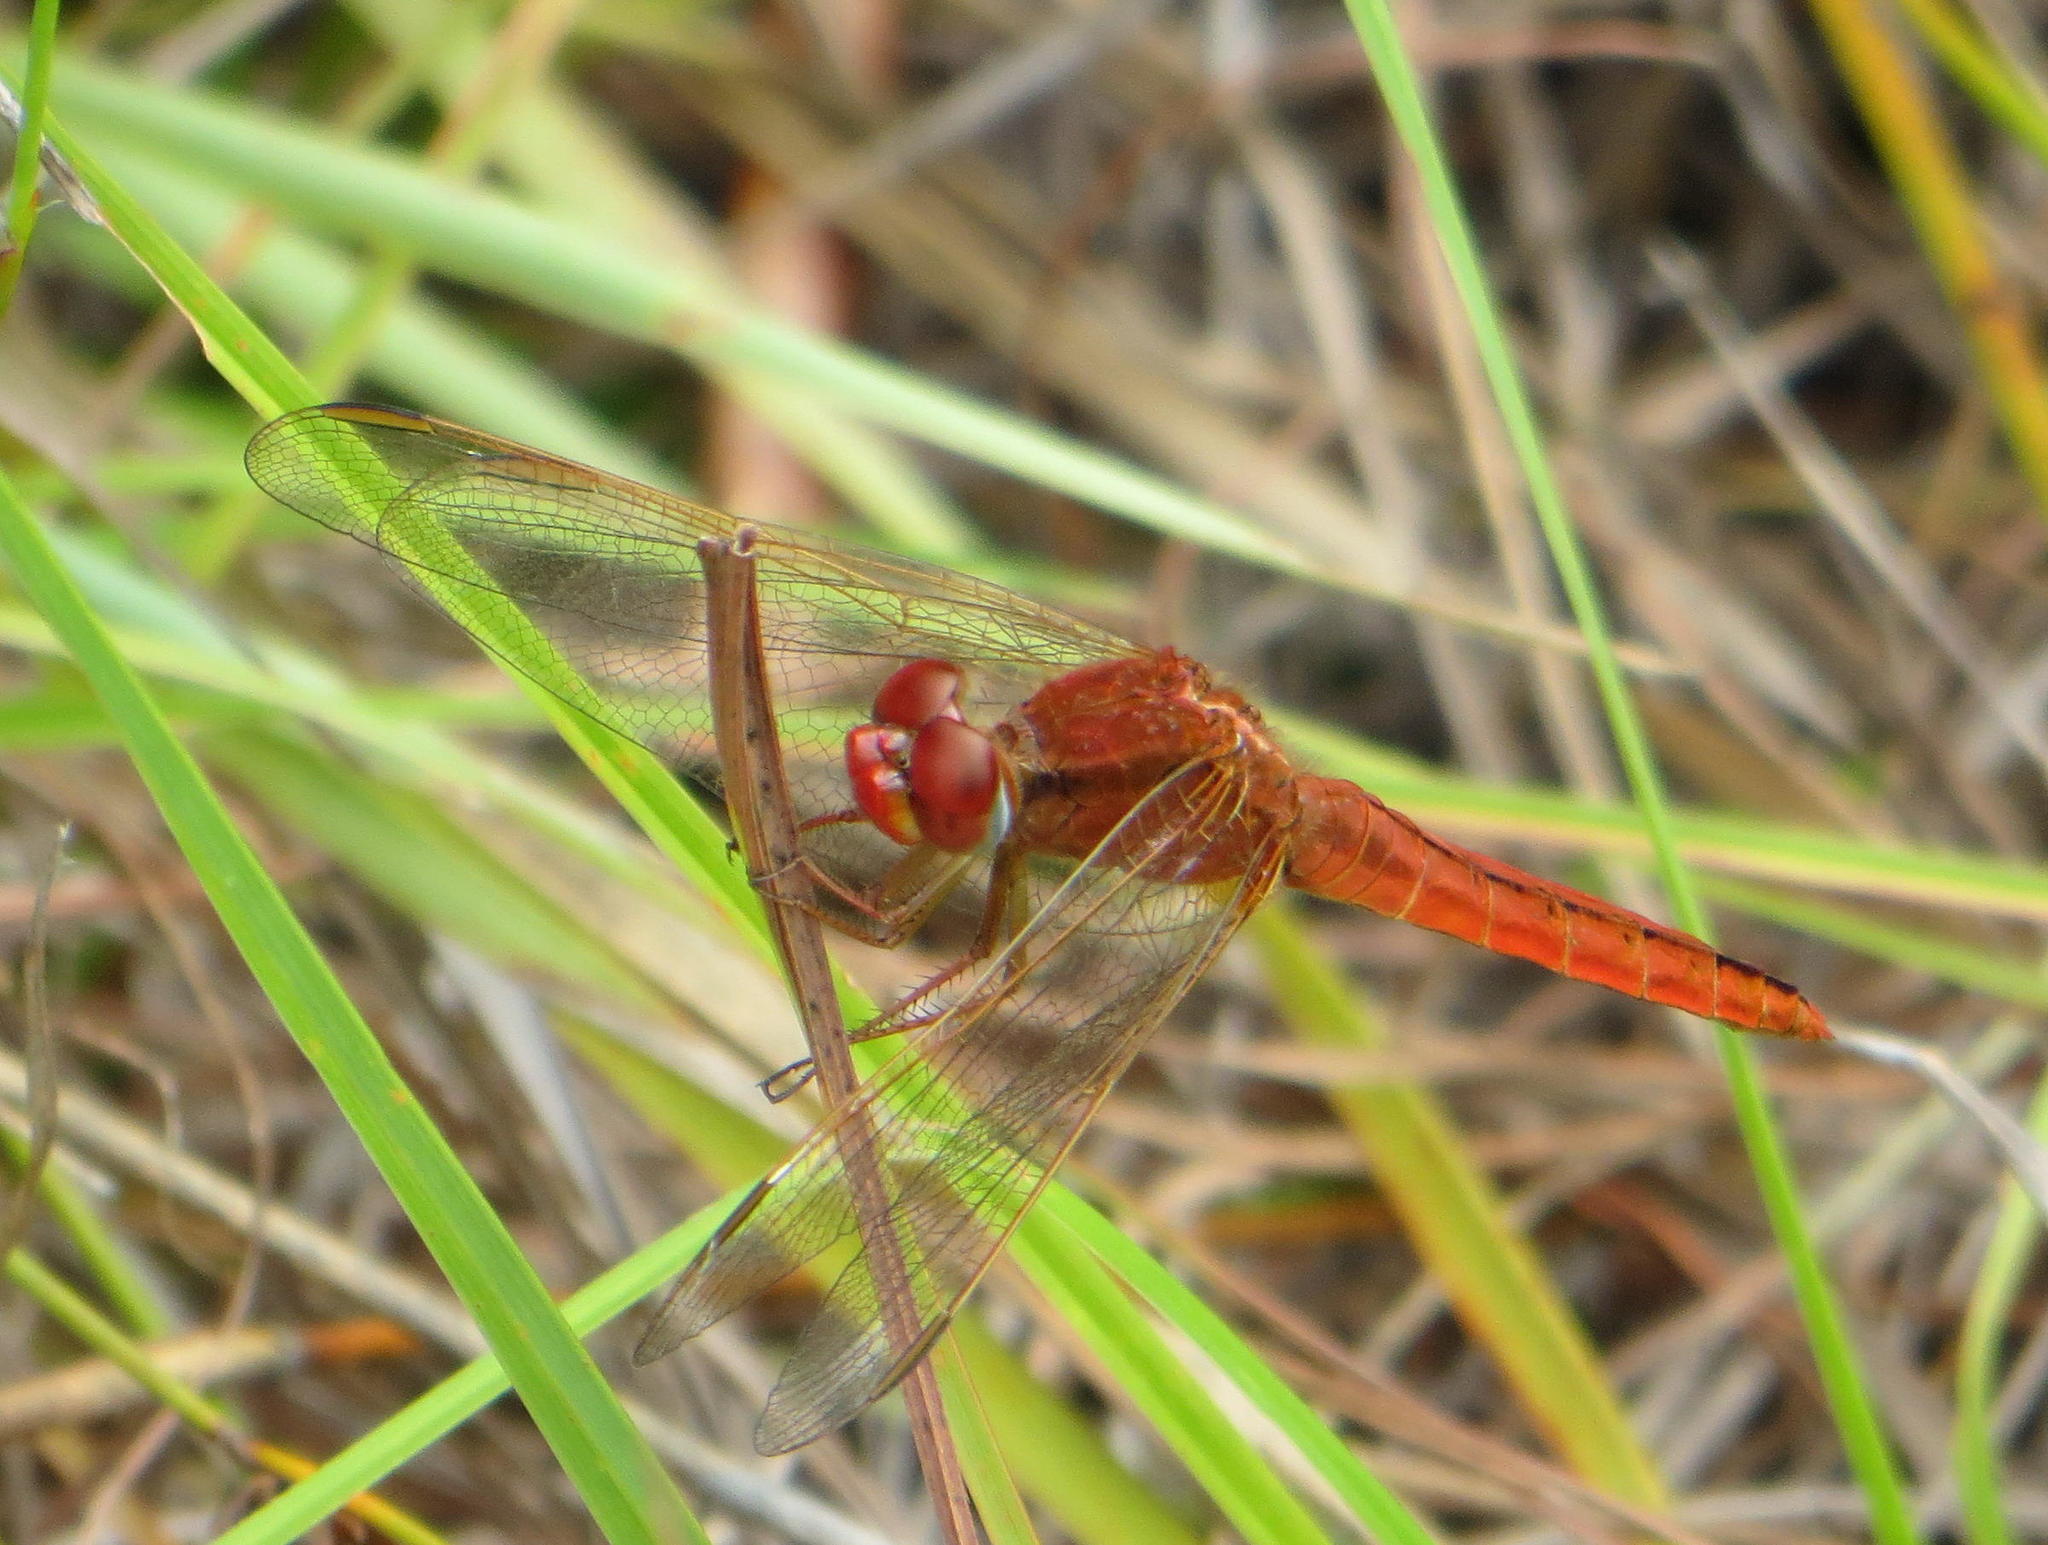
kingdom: Animalia
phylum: Arthropoda
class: Insecta
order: Odonata
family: Libellulidae
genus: Crocothemis
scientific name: Crocothemis erythraea
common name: Scarlet dragonfly
